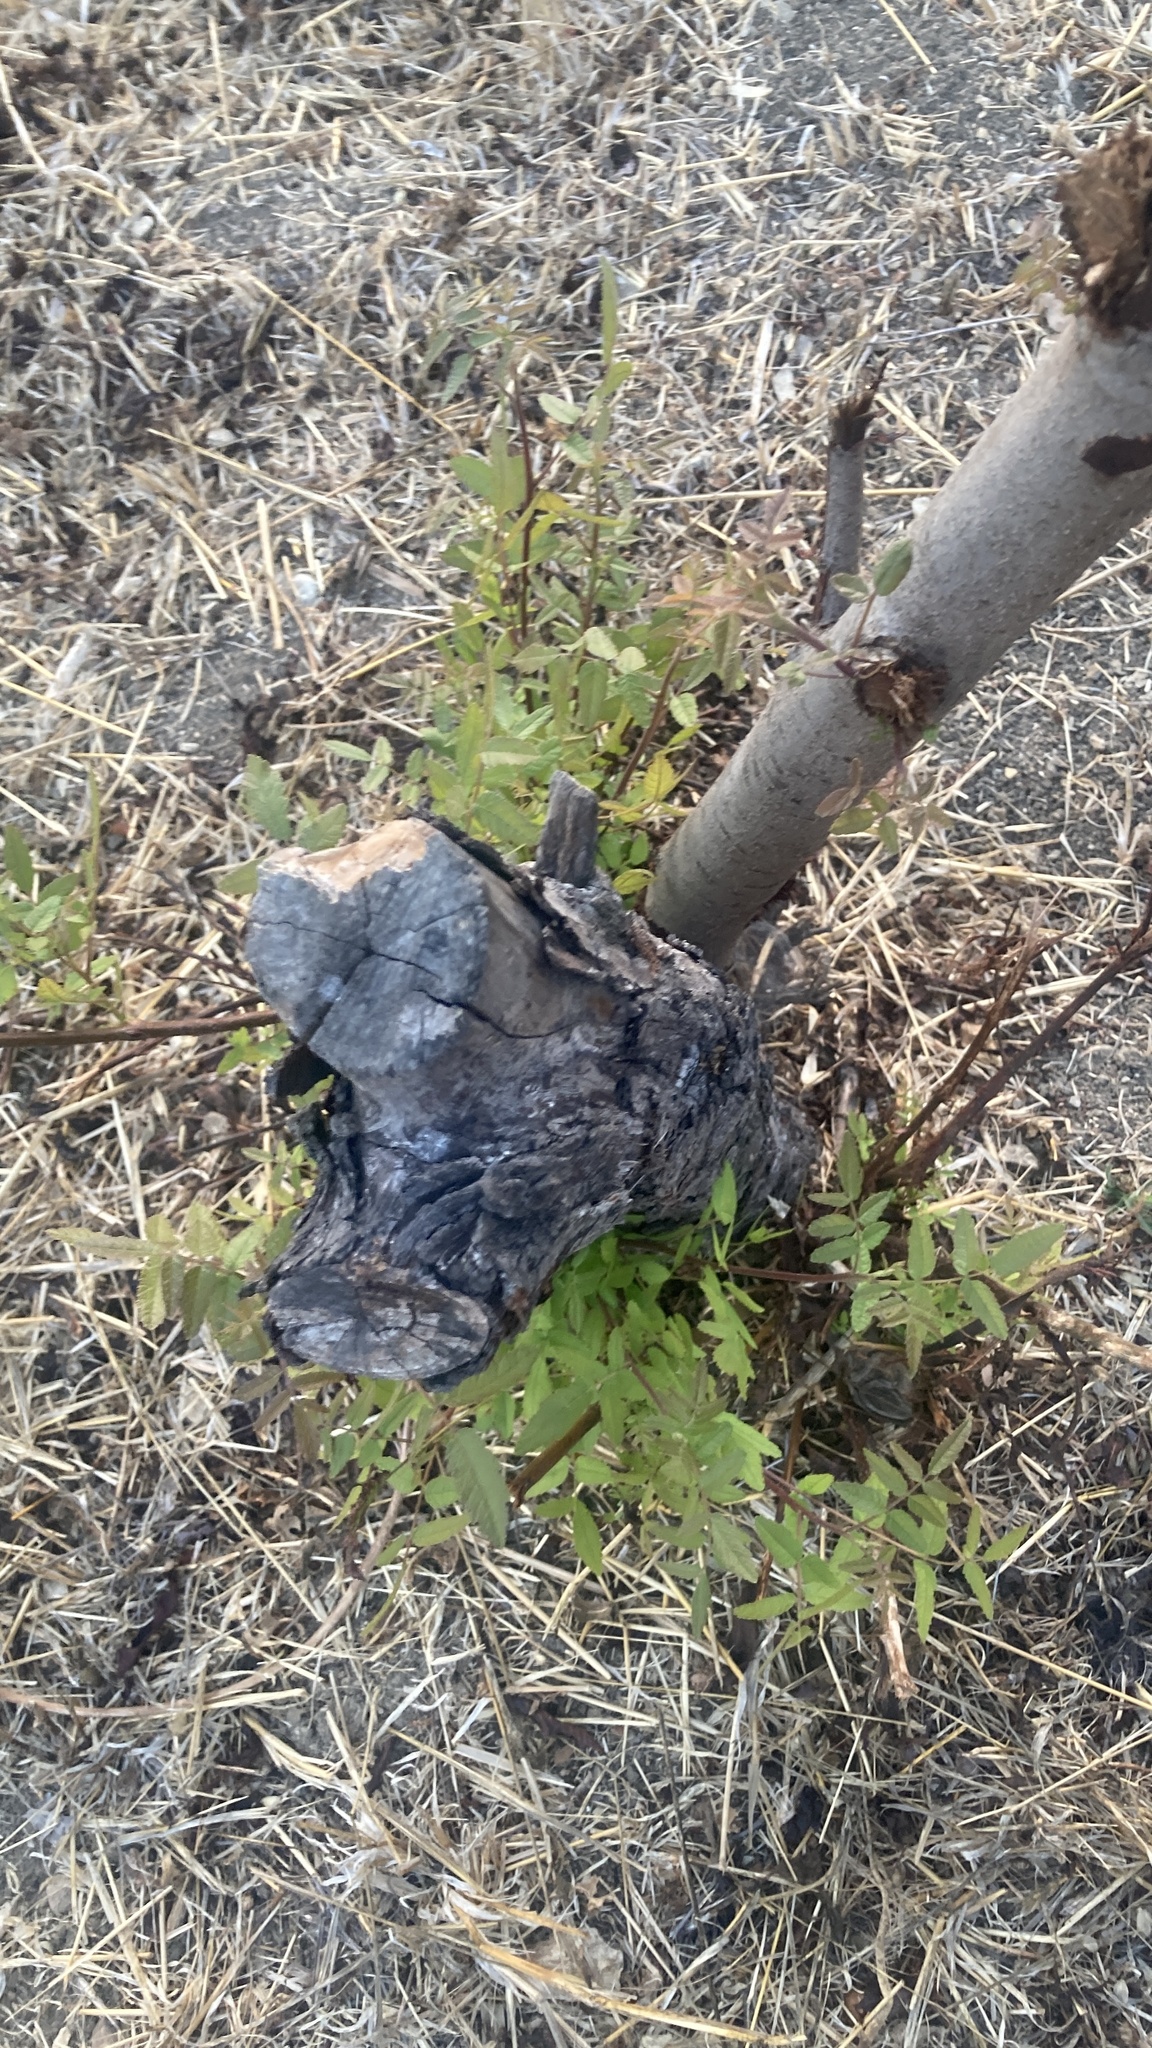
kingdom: Plantae
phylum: Tracheophyta
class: Magnoliopsida
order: Fagales
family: Juglandaceae
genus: Juglans
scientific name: Juglans californica
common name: Southern california black walnut
